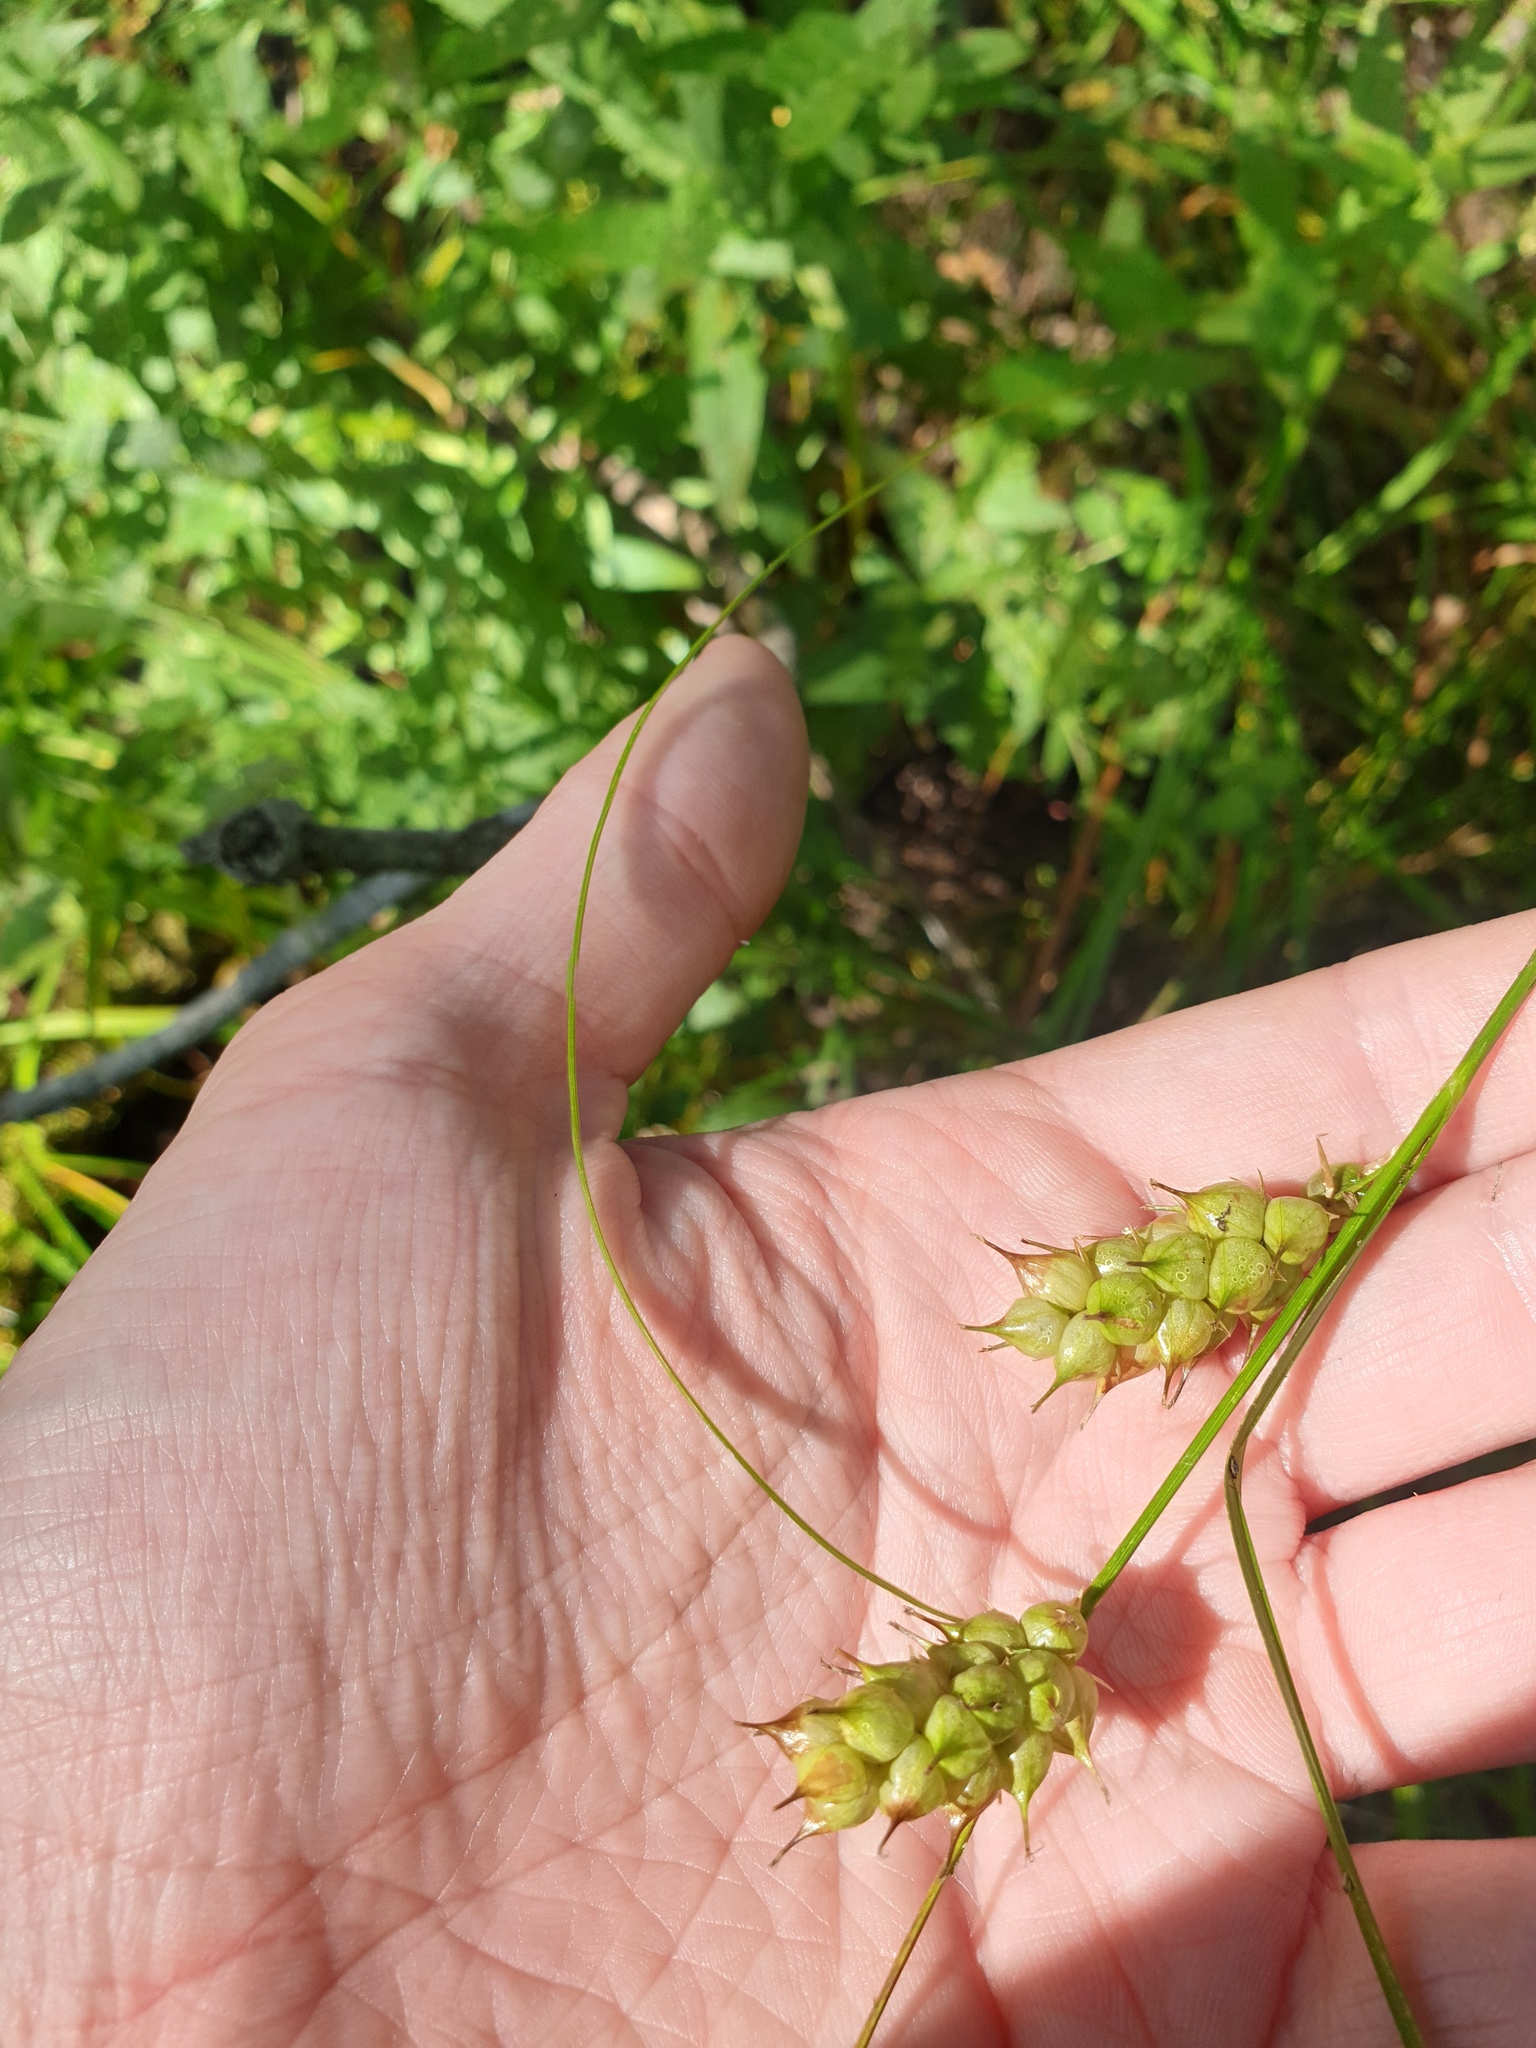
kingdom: Plantae
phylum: Tracheophyta
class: Liliopsida
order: Poales
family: Cyperaceae
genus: Carex
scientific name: Carex tuckermanii
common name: Tuckerman's sedge
